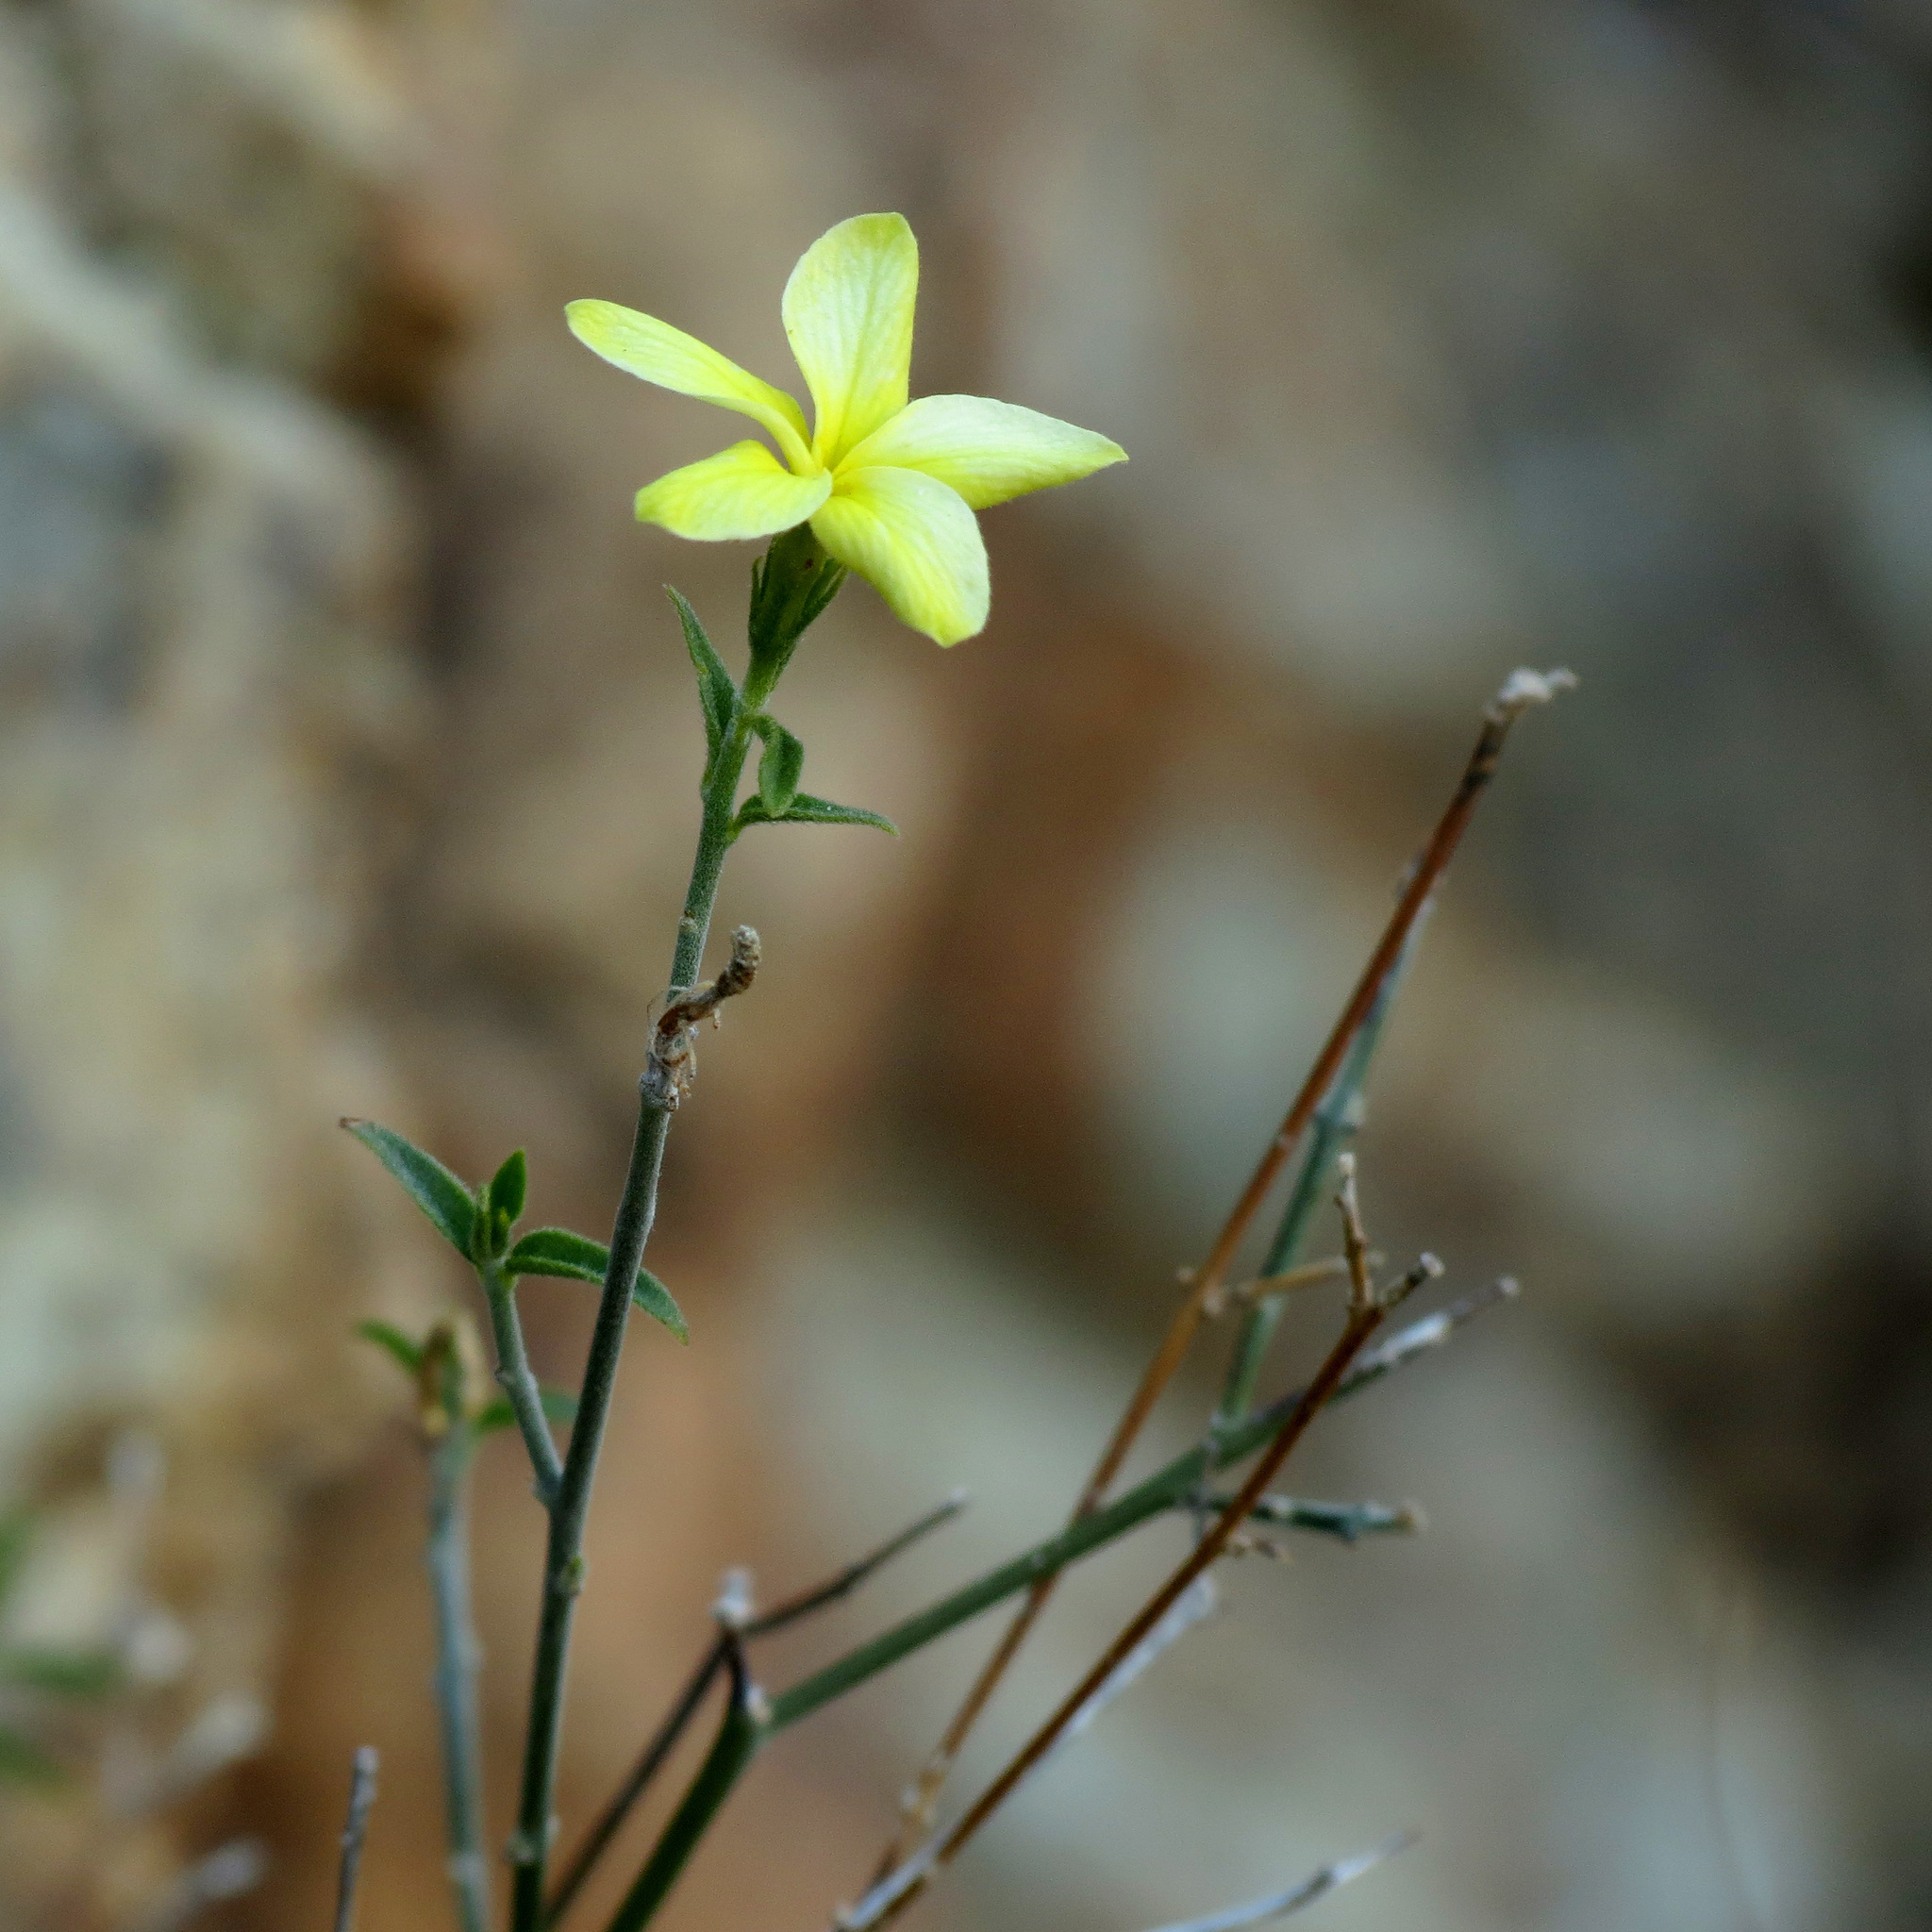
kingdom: Plantae
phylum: Tracheophyta
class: Magnoliopsida
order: Gentianales
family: Apocynaceae
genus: Haplophyton
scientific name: Haplophyton crooksii
